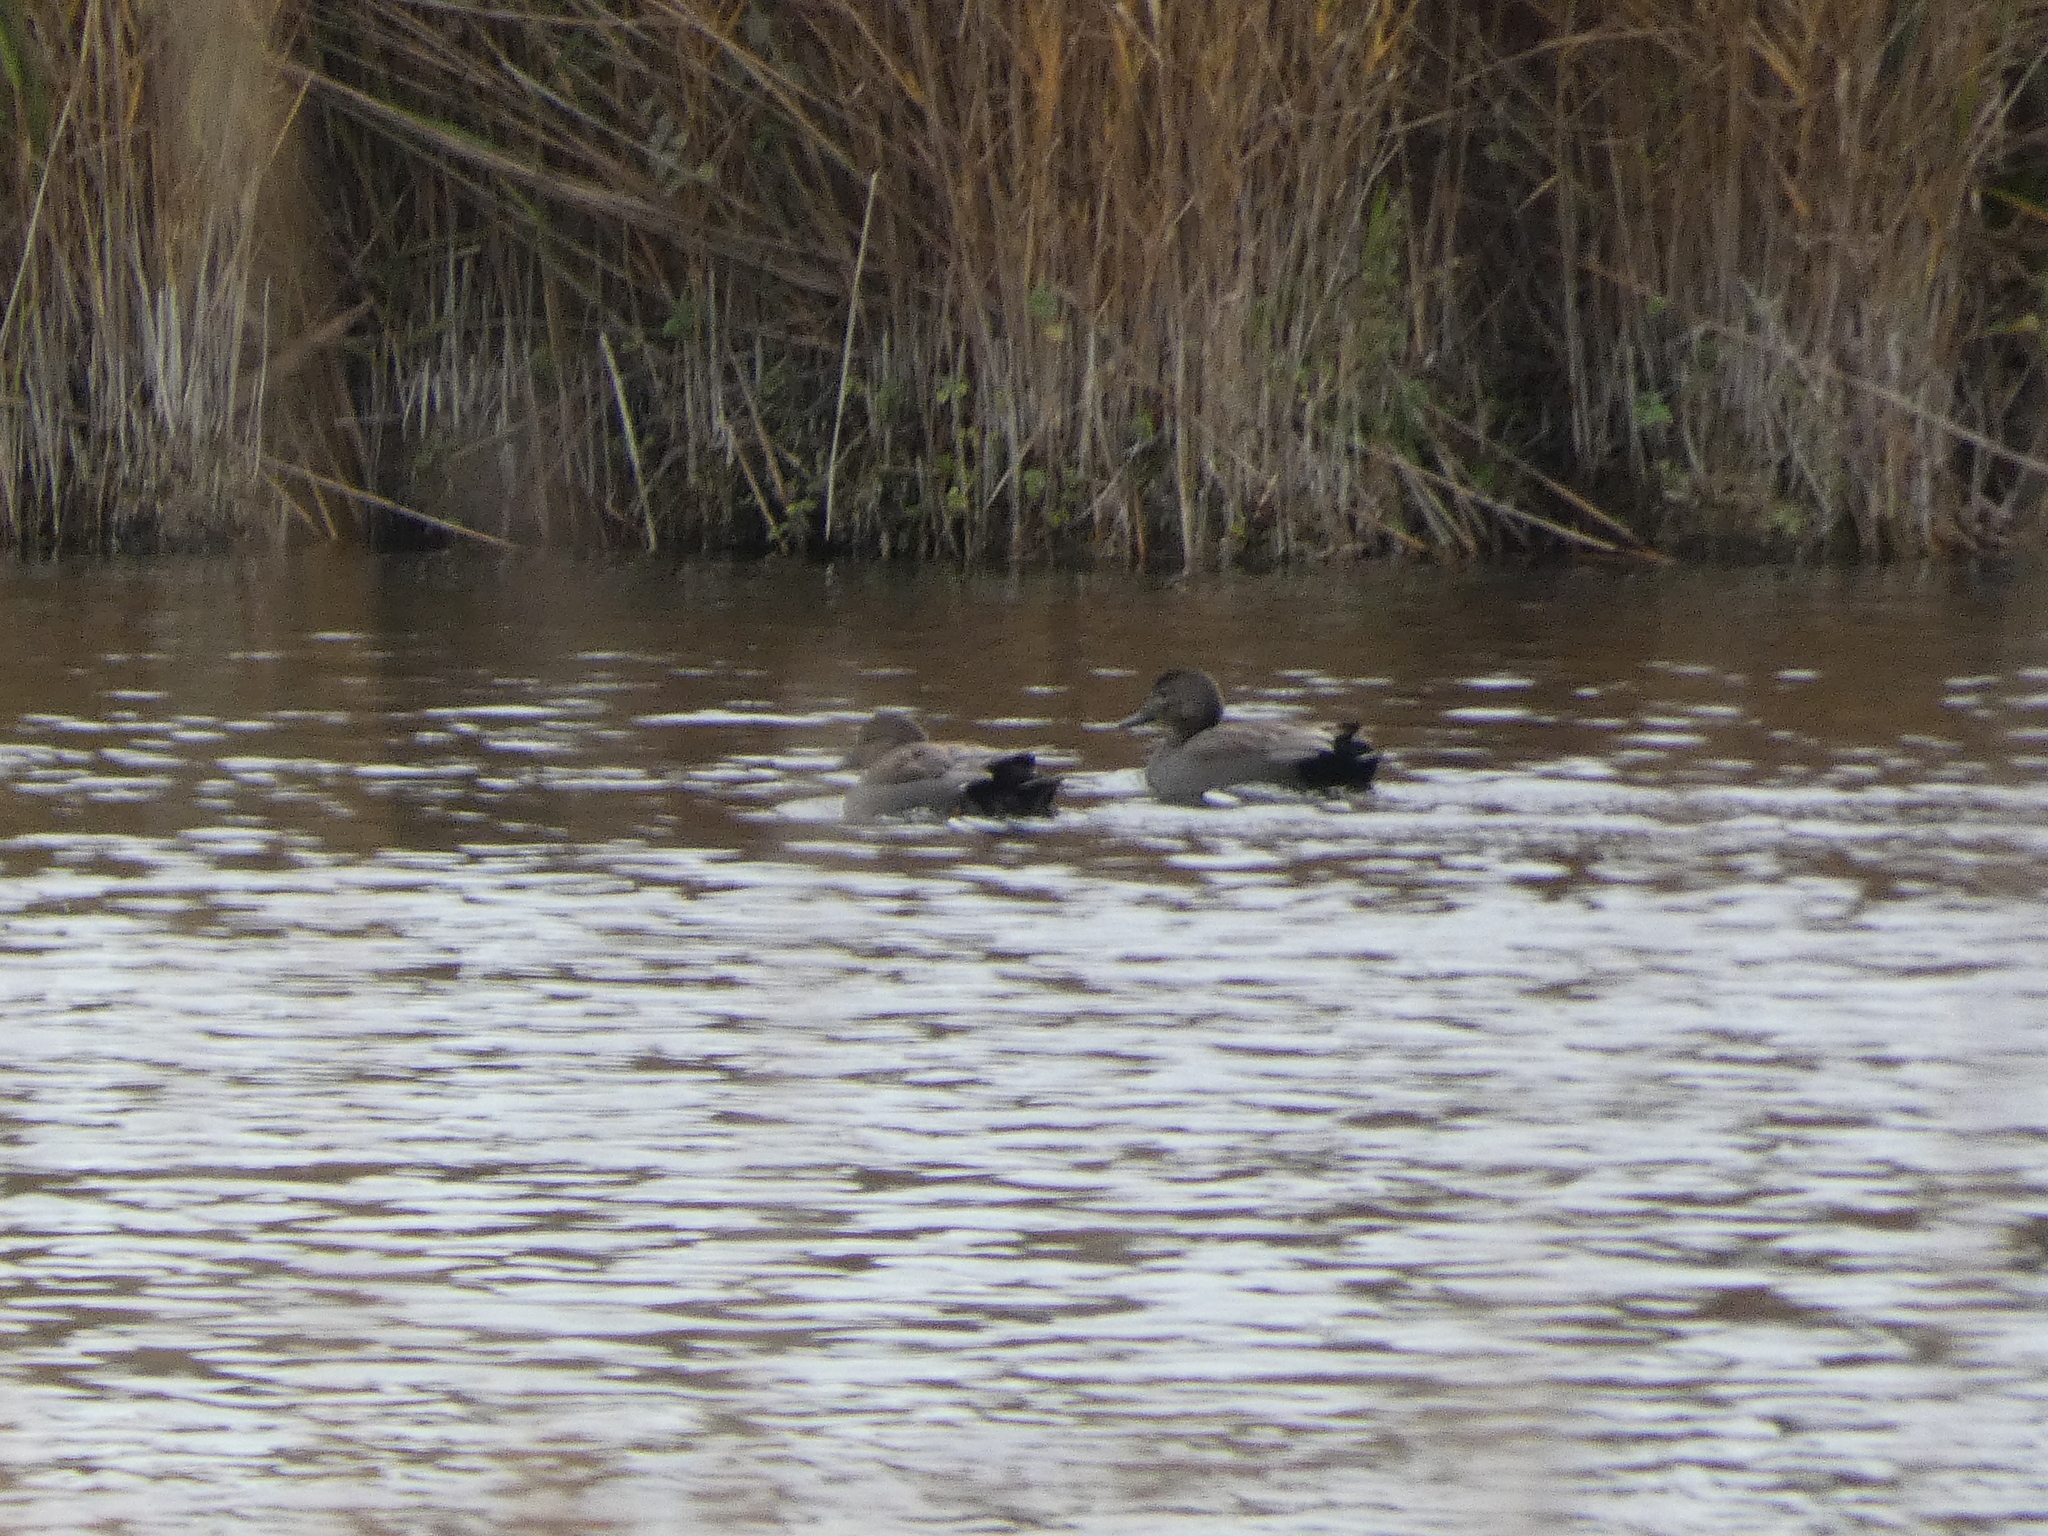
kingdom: Animalia
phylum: Chordata
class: Aves
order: Anseriformes
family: Anatidae
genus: Mareca
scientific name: Mareca strepera
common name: Gadwall
